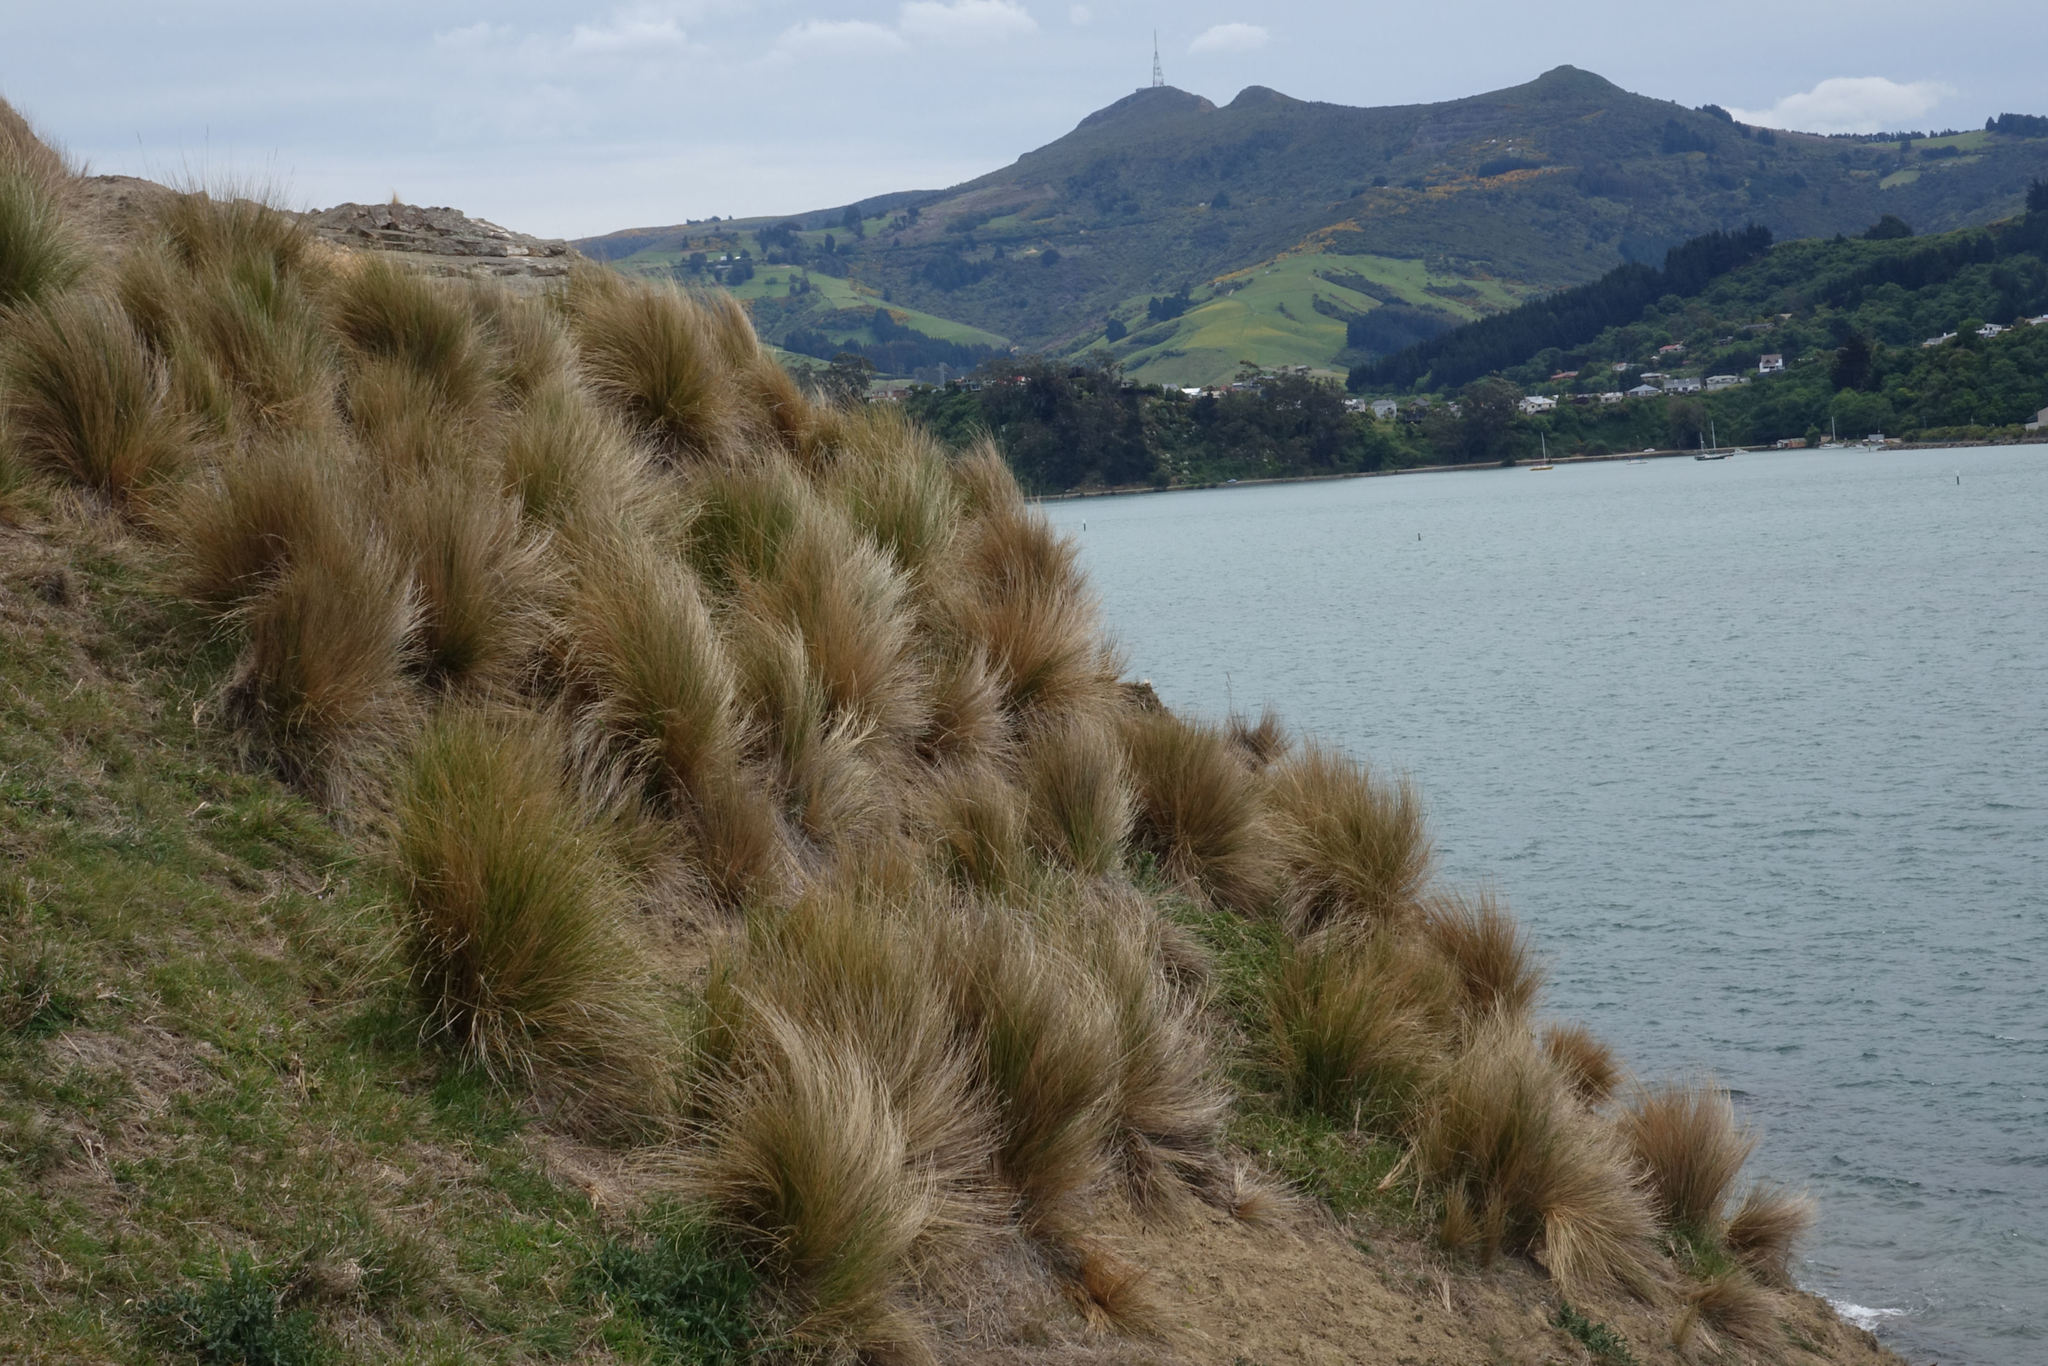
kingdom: Plantae
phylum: Tracheophyta
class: Liliopsida
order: Poales
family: Poaceae
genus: Poa
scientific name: Poa cita
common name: Silver tussock
